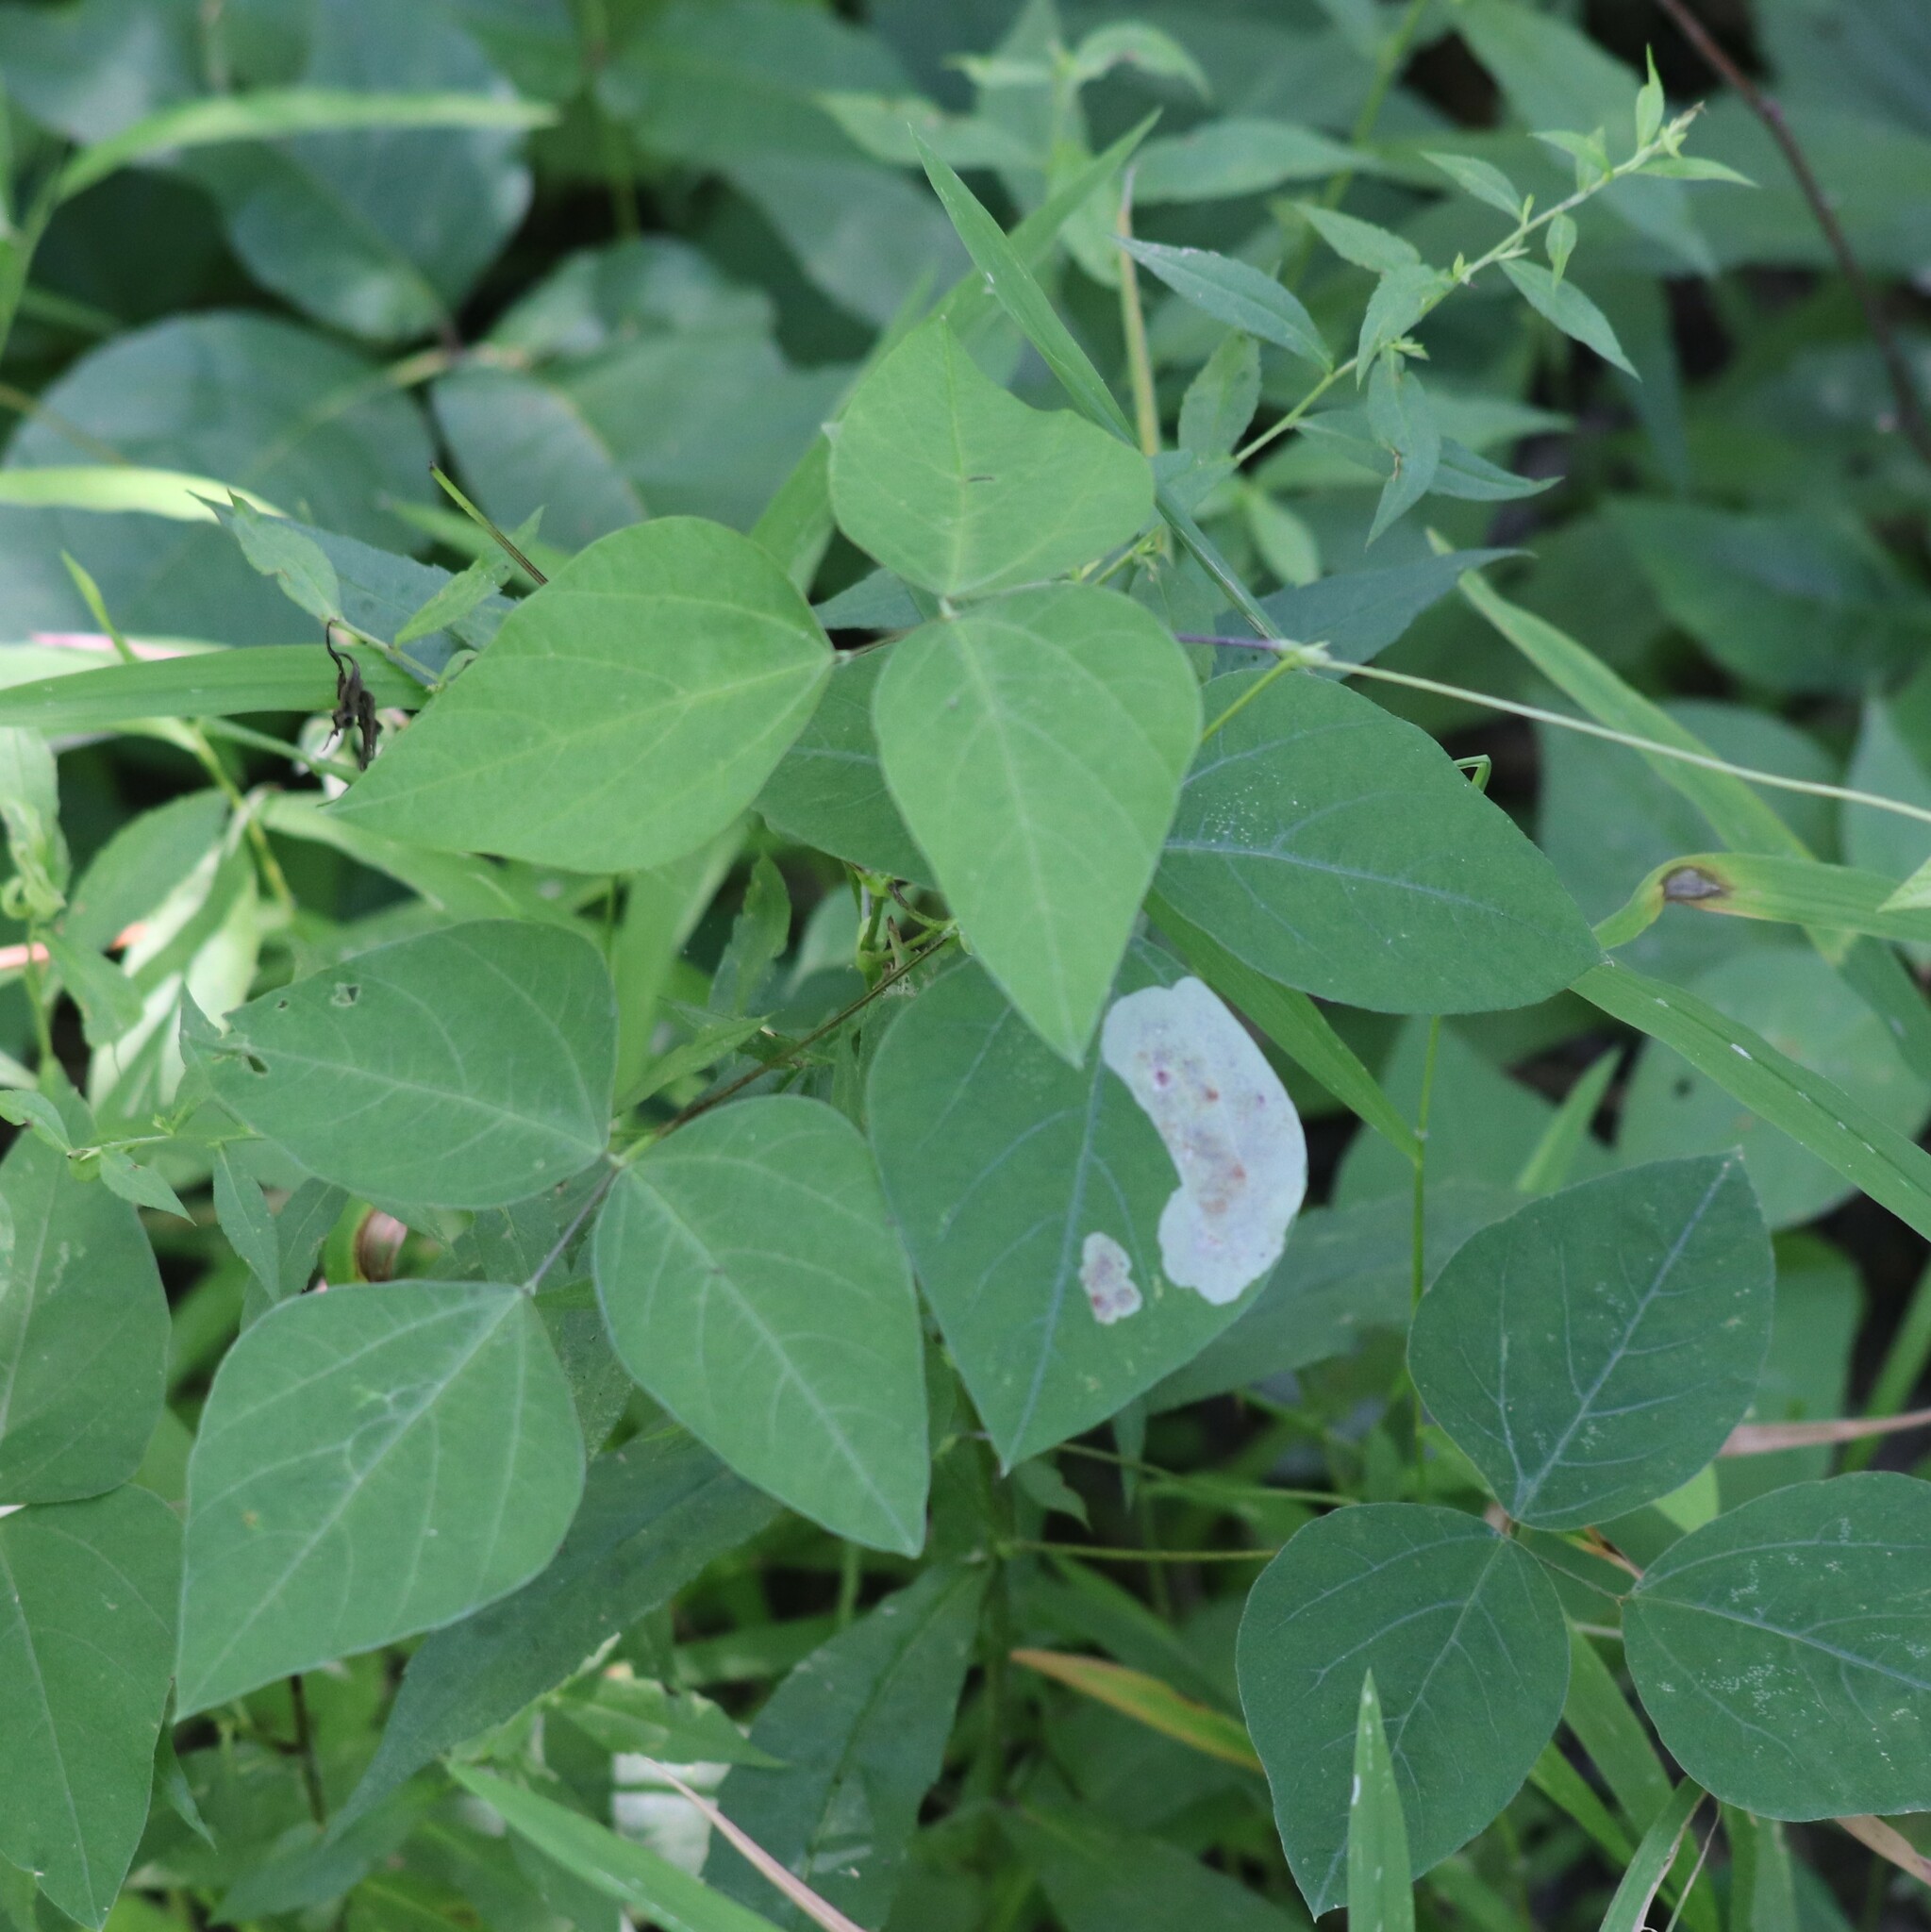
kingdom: Plantae
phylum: Tracheophyta
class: Magnoliopsida
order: Fabales
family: Fabaceae
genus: Amphicarpaea
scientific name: Amphicarpaea bracteata
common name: American hog peanut
